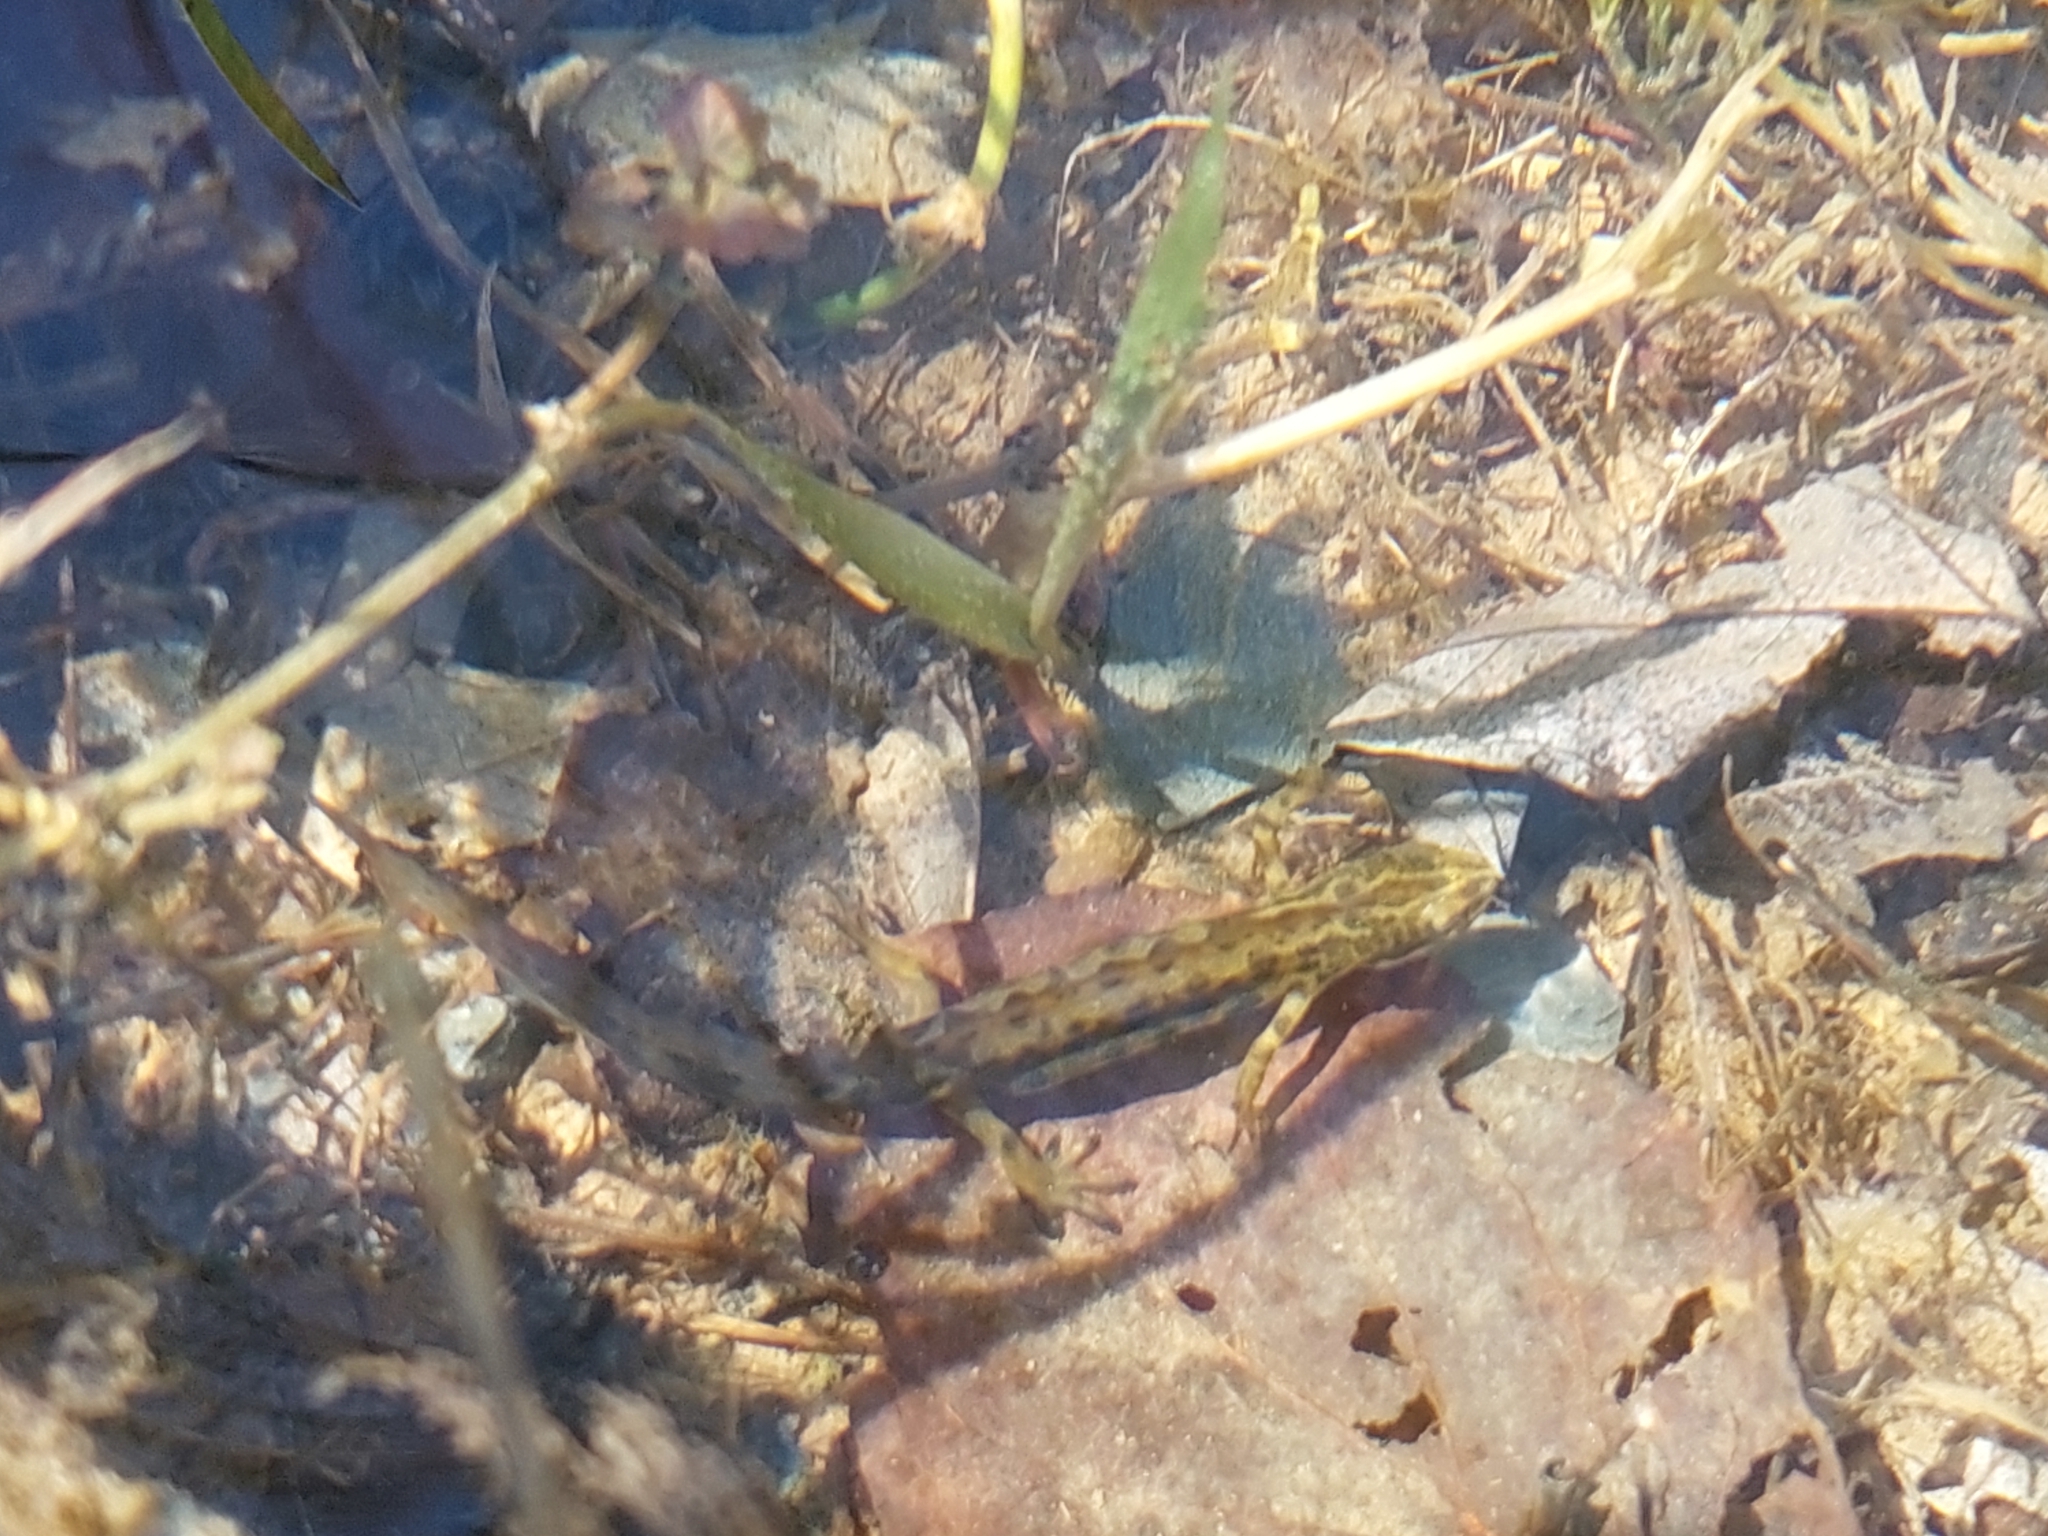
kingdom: Animalia
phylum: Chordata
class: Amphibia
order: Caudata
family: Salamandridae
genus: Lissotriton
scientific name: Lissotriton vulgaris
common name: Smooth newt
